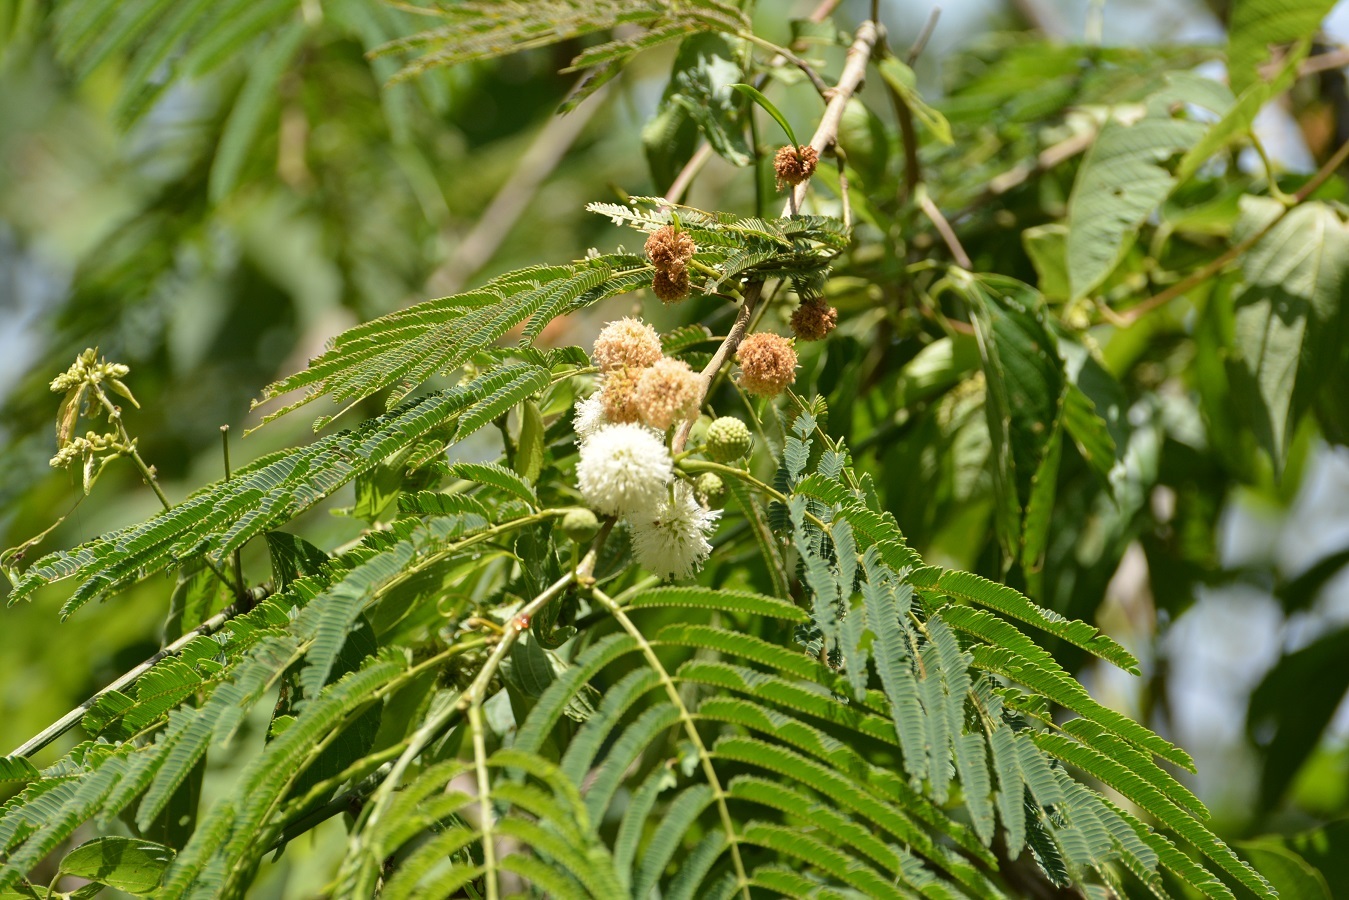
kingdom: Plantae
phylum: Tracheophyta
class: Magnoliopsida
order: Fabales
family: Fabaceae
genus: Leucaena
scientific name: Leucaena diversifolia
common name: Red leucaena
